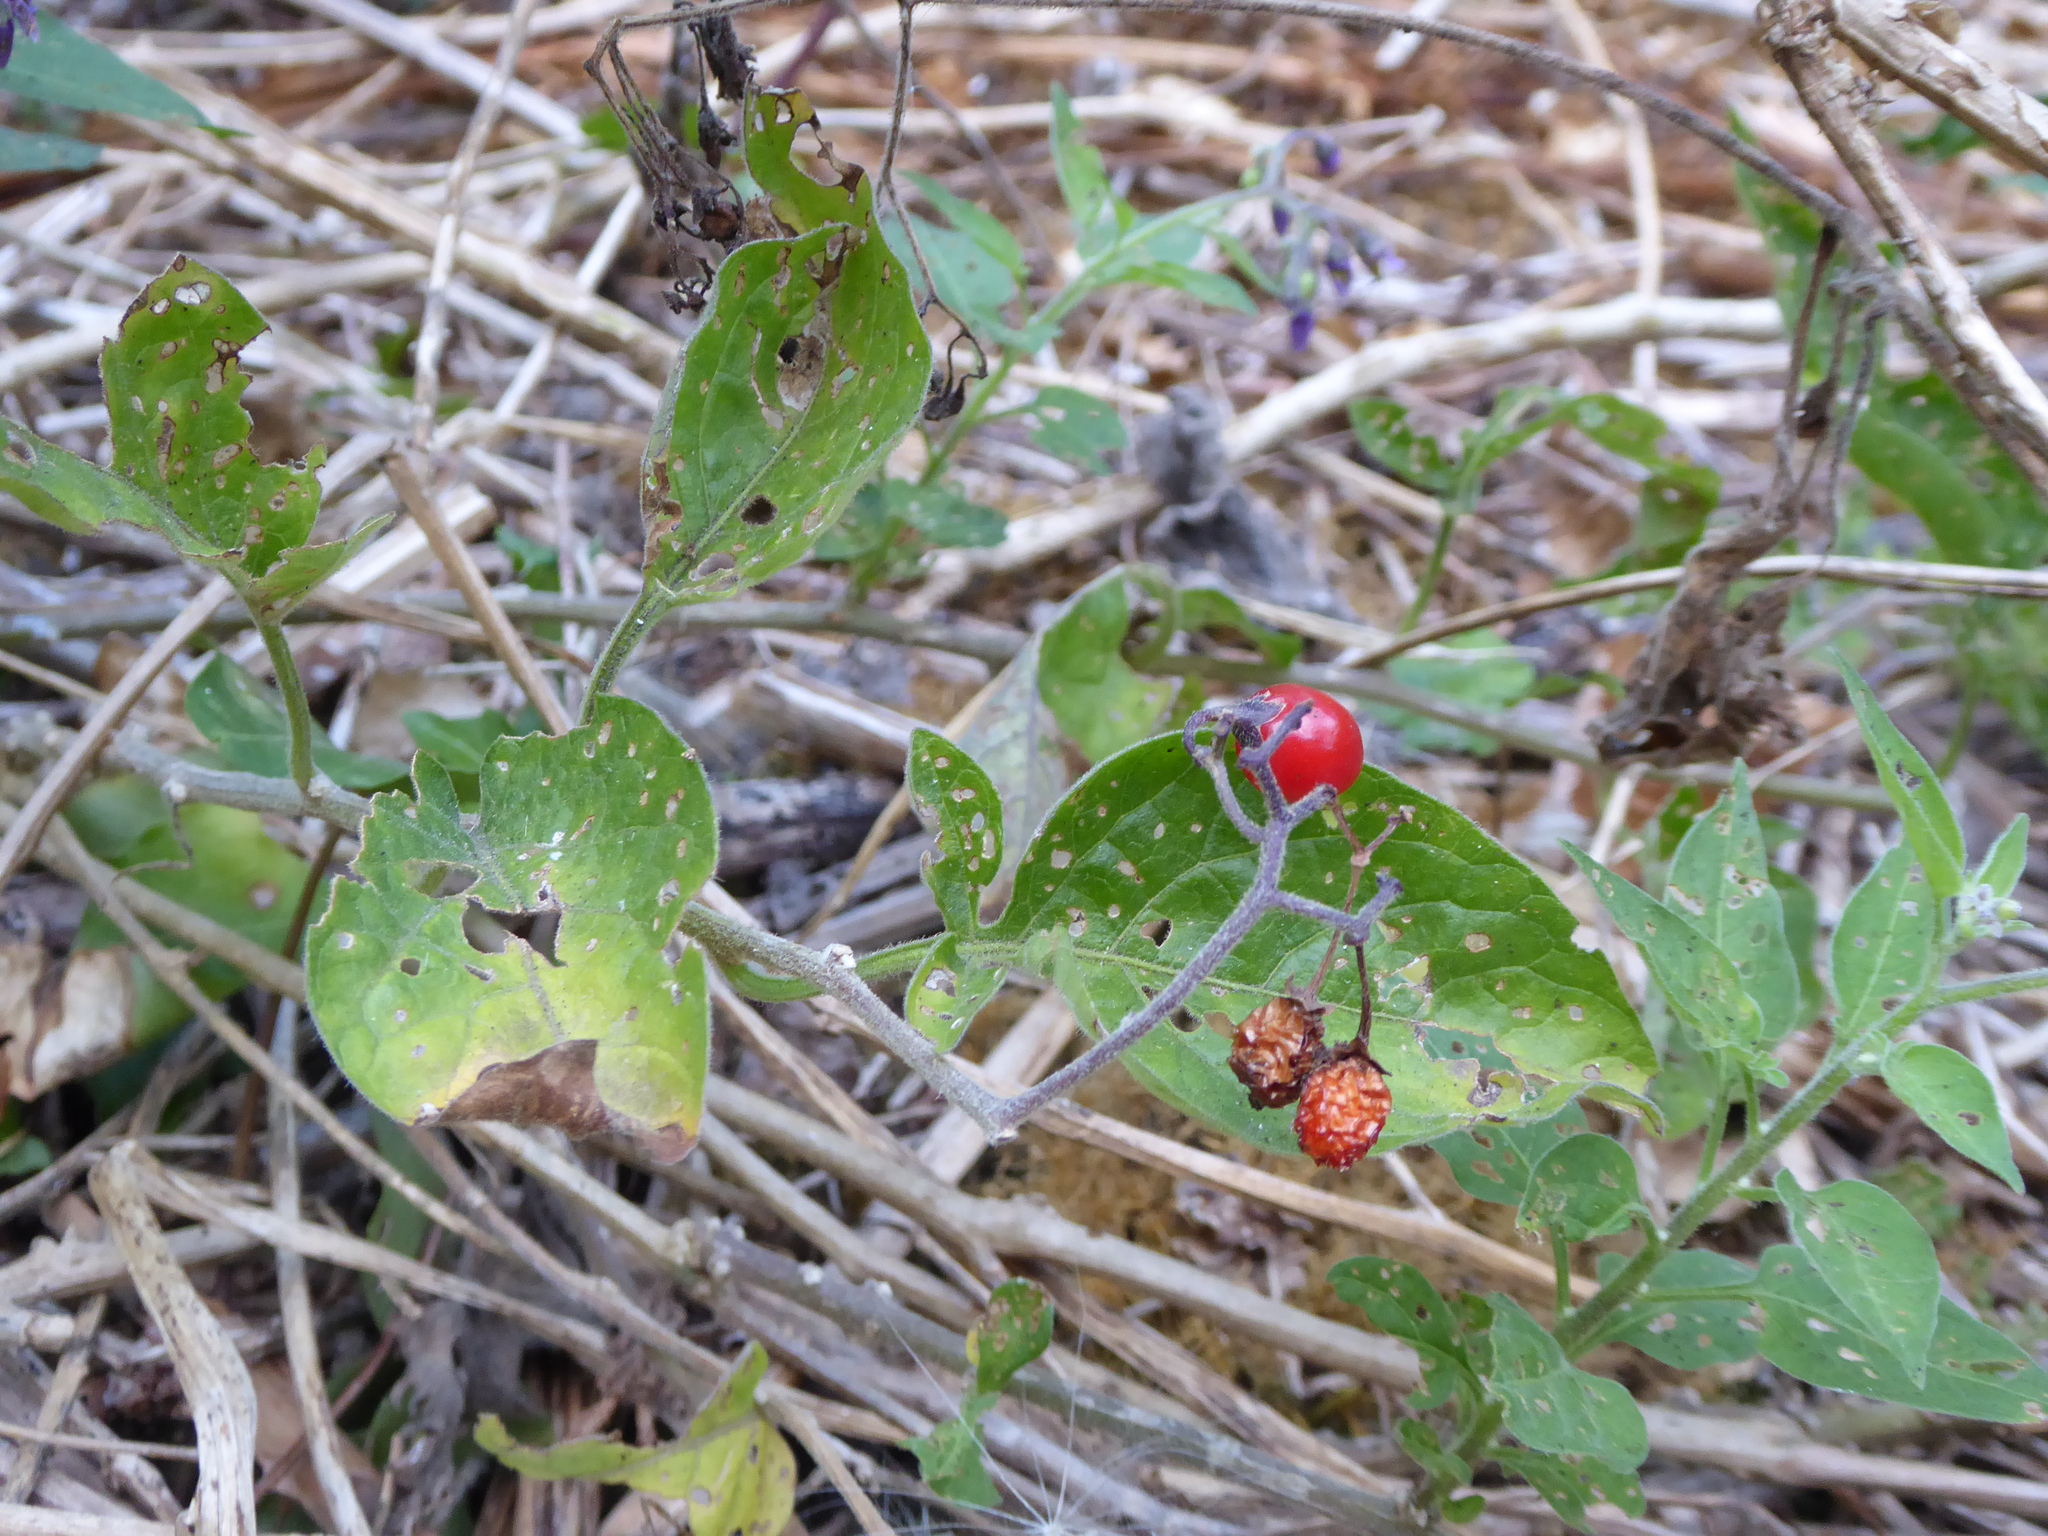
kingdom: Plantae
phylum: Tracheophyta
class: Magnoliopsida
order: Solanales
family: Solanaceae
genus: Solanum
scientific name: Solanum dulcamara
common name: Climbing nightshade
